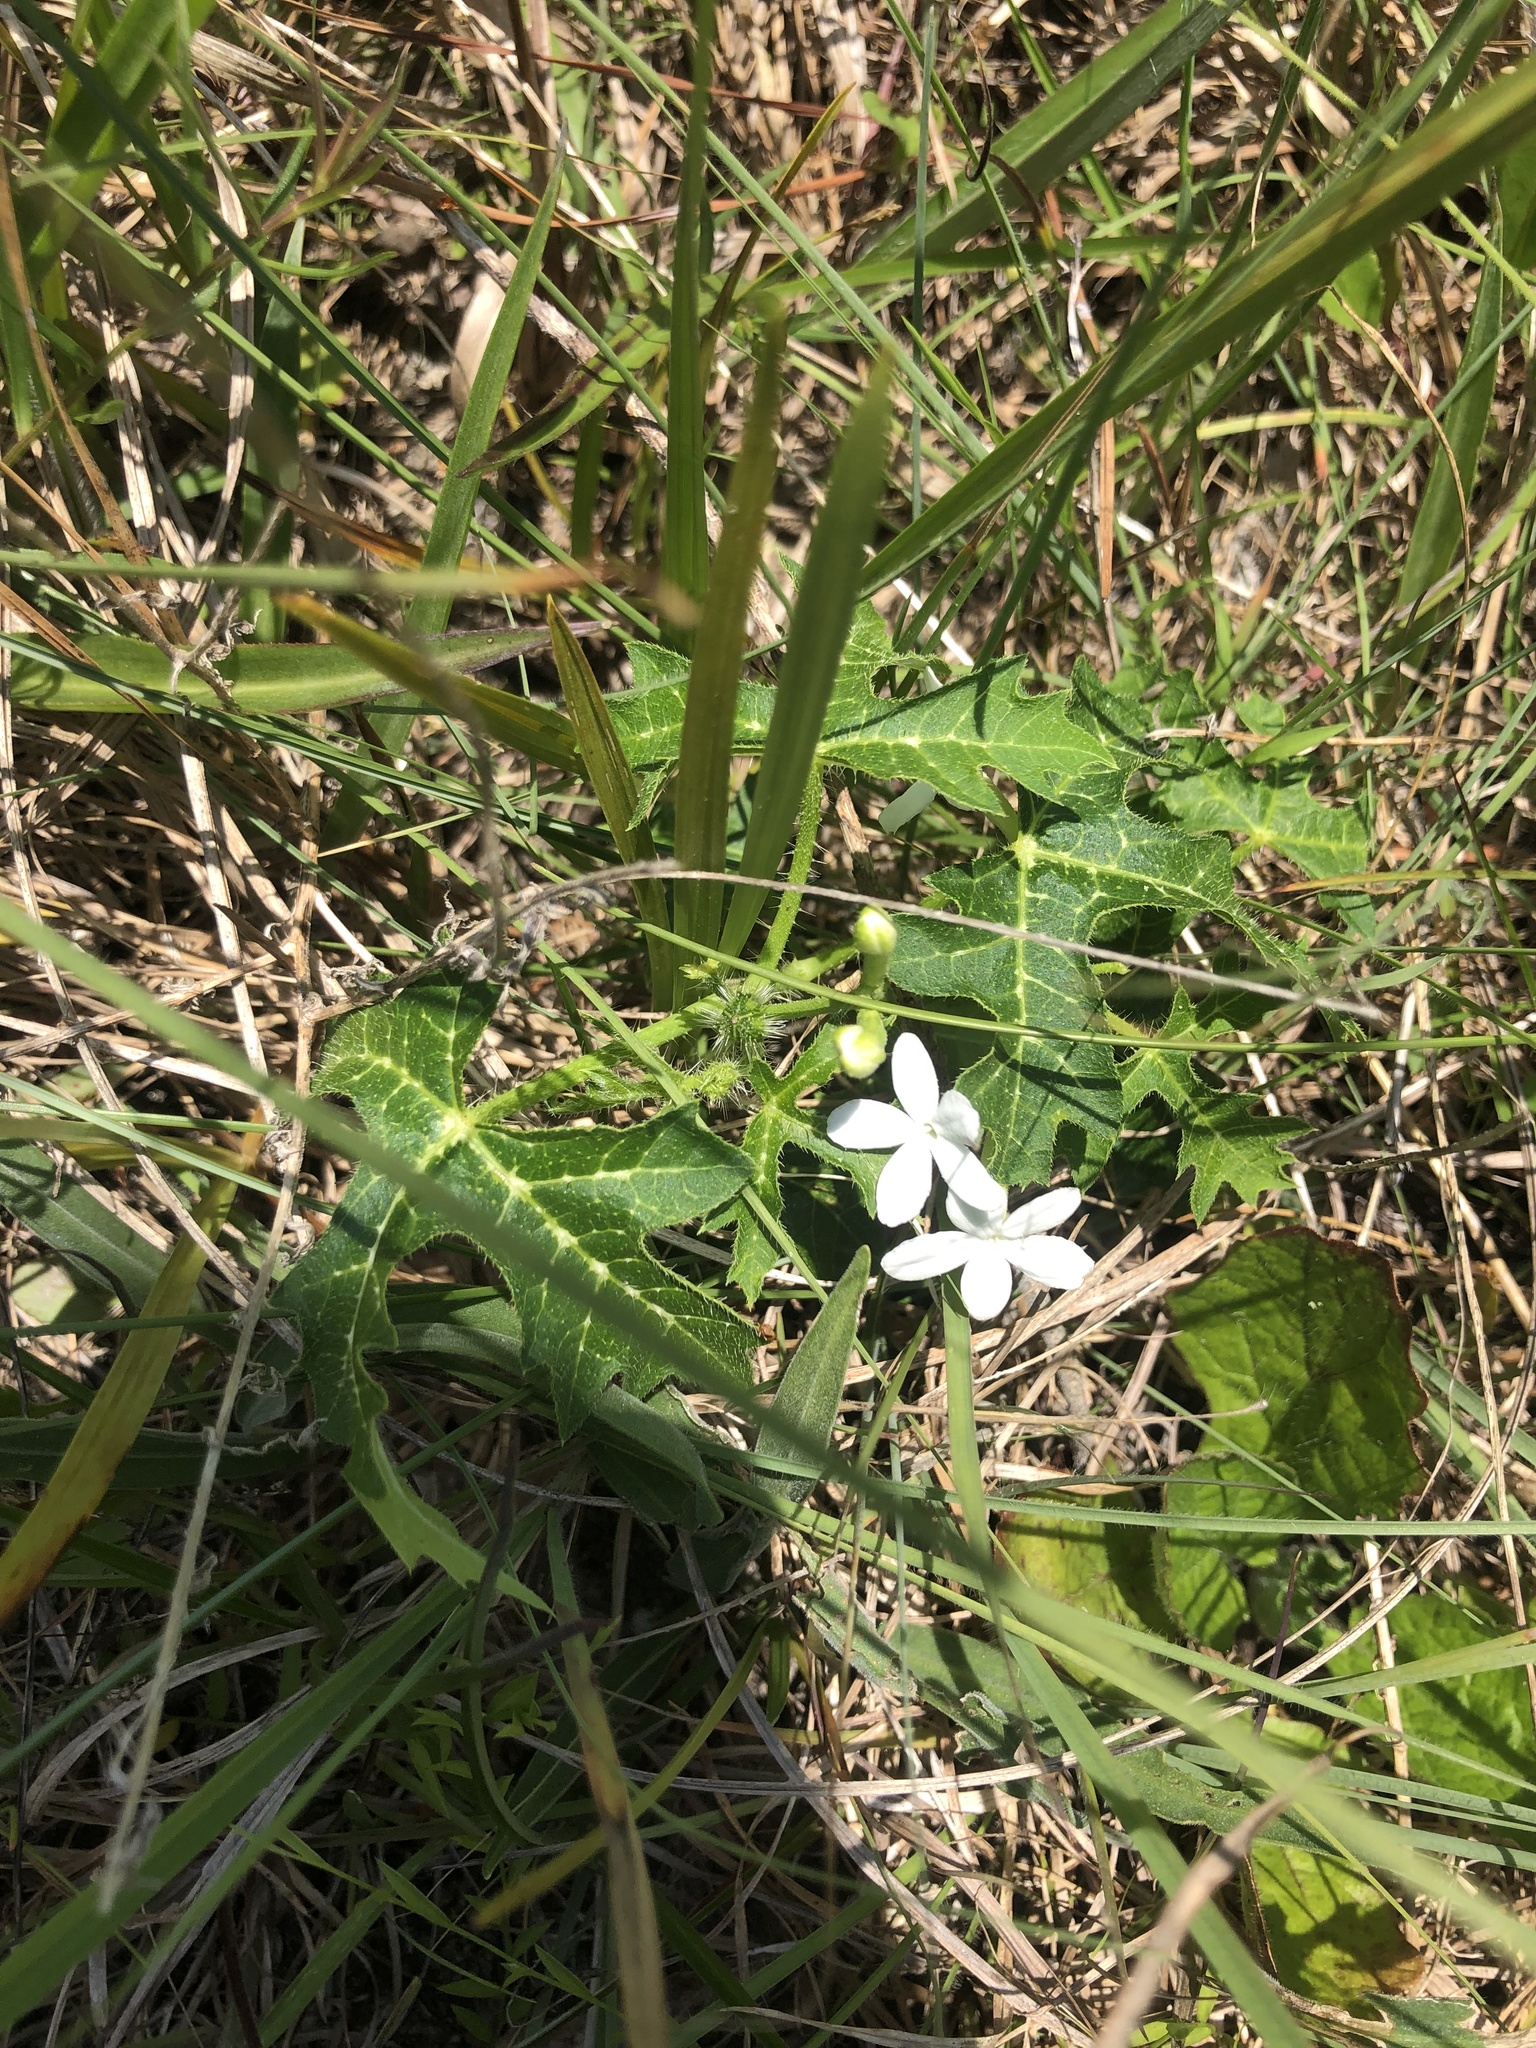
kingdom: Plantae
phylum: Tracheophyta
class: Magnoliopsida
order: Malpighiales
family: Euphorbiaceae
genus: Cnidoscolus
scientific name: Cnidoscolus stimulosus
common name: Bull-nettle
